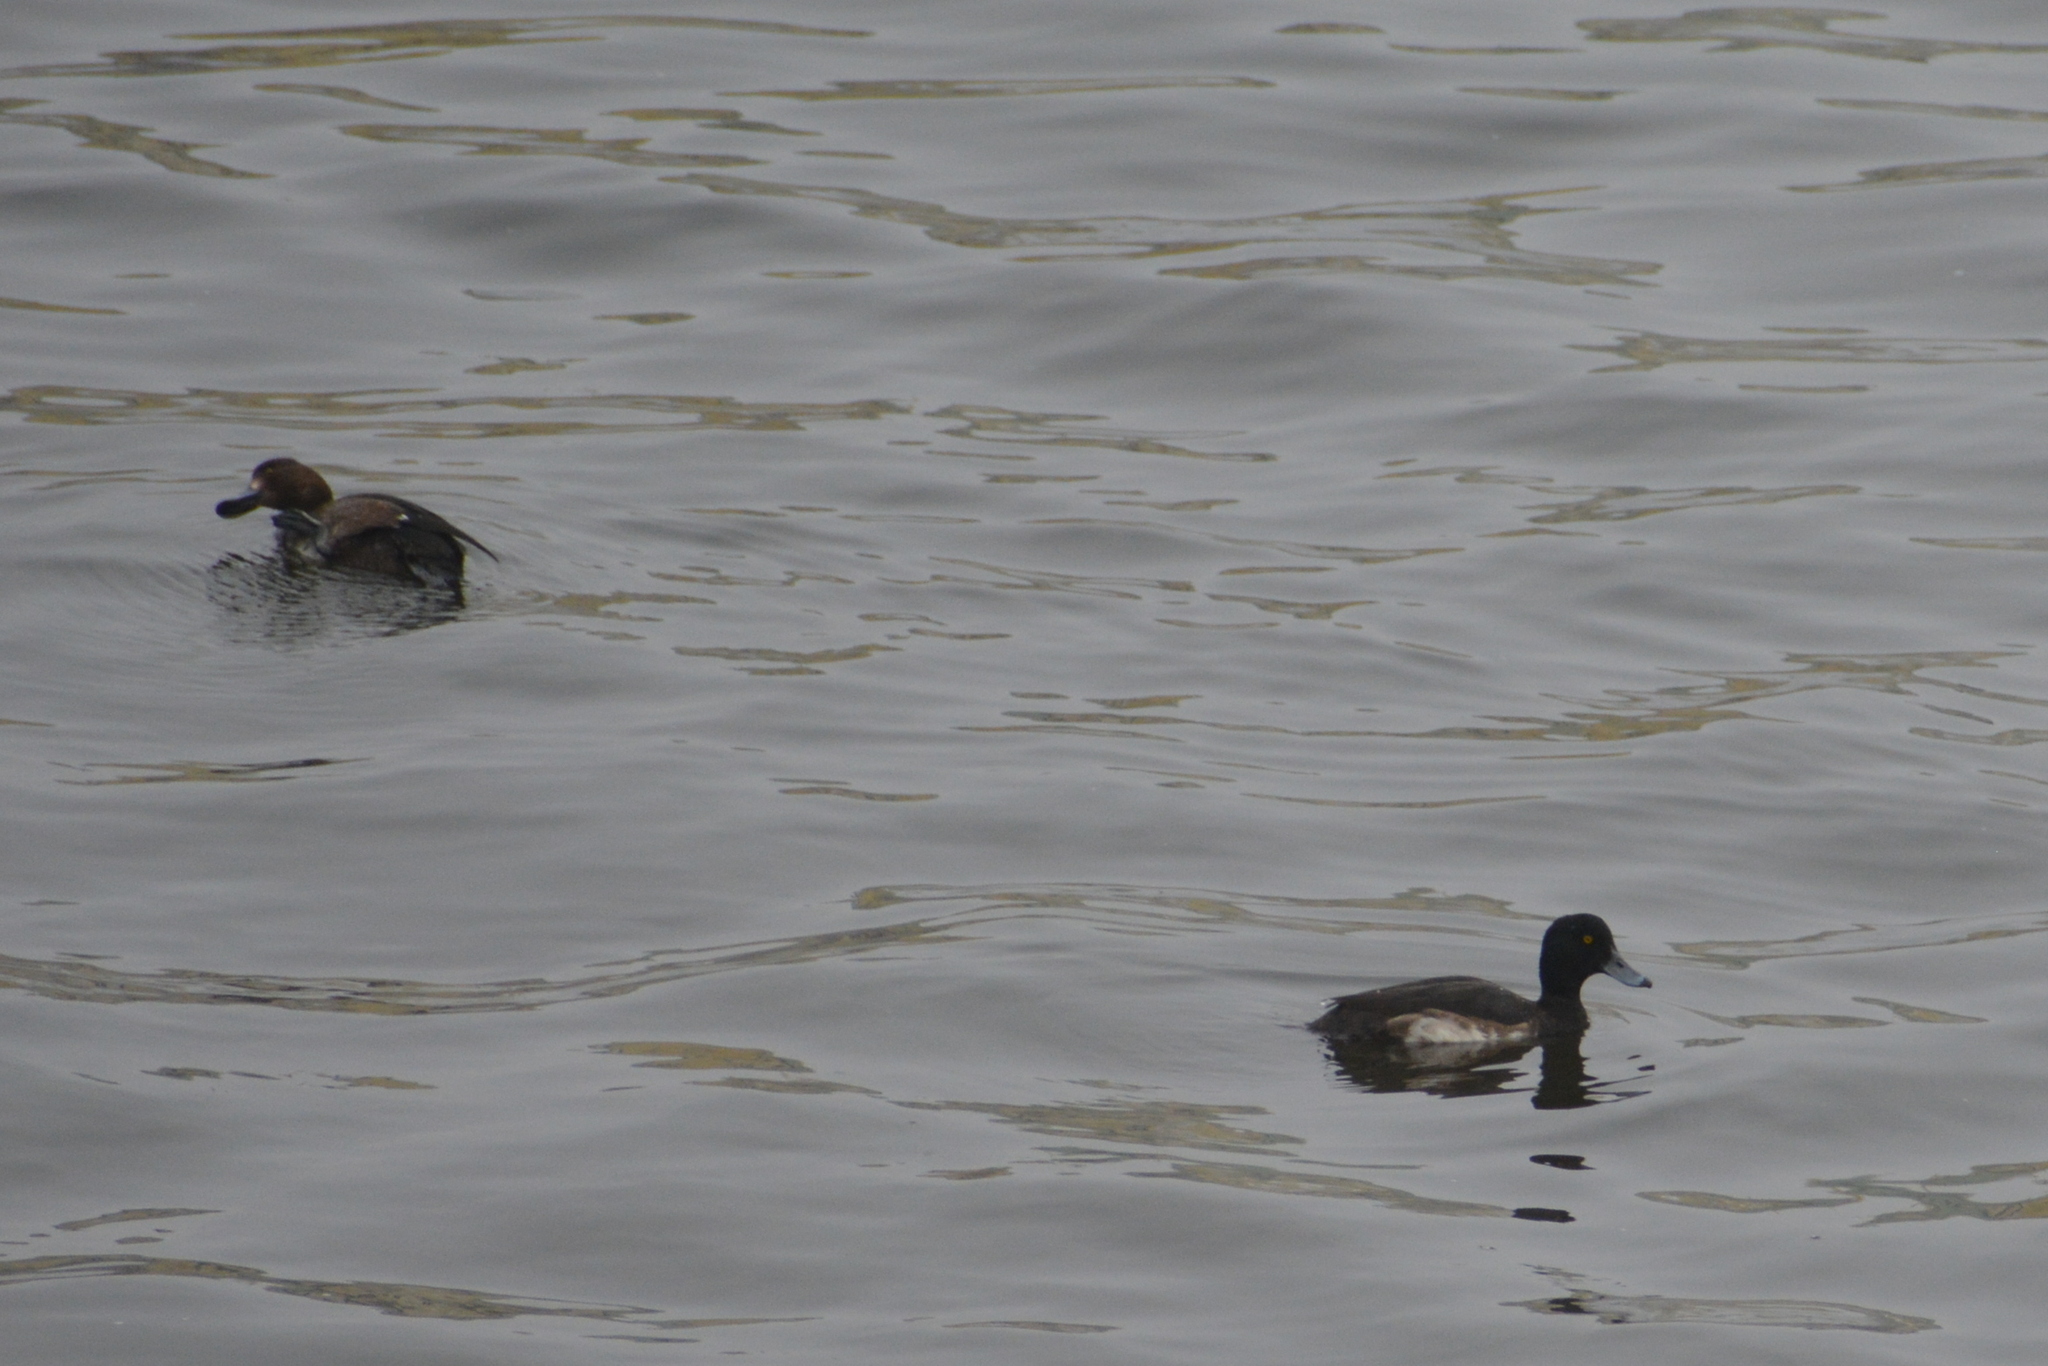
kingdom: Animalia
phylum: Chordata
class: Aves
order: Anseriformes
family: Anatidae
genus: Aythya
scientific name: Aythya fuligula
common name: Tufted duck
